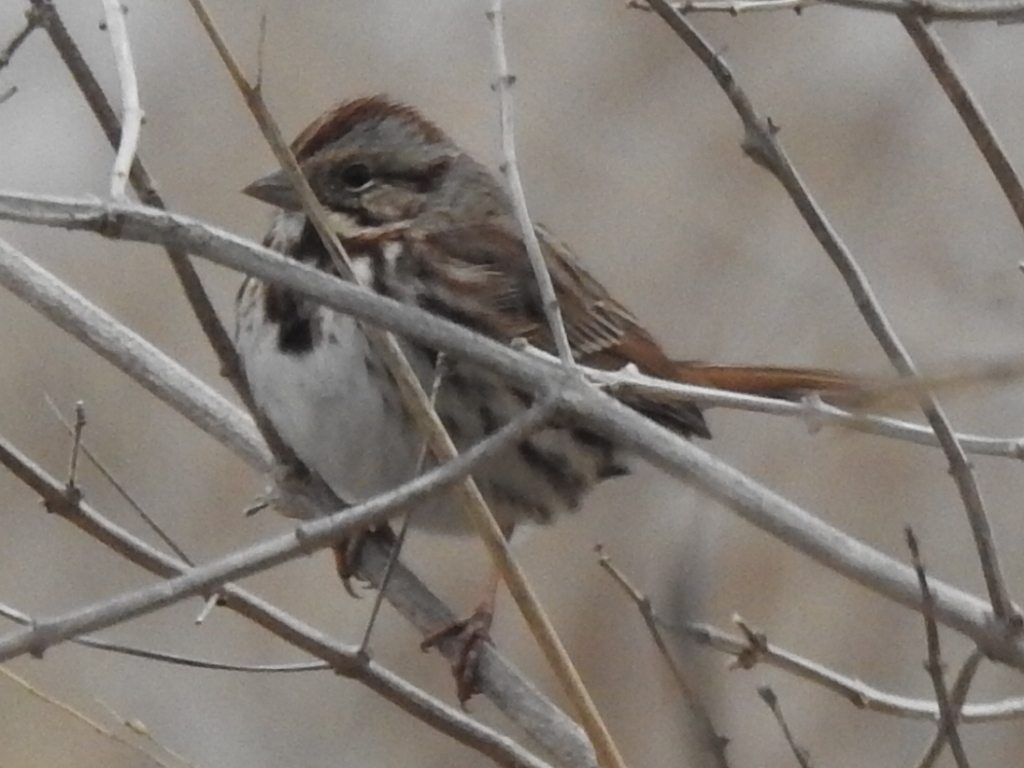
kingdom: Animalia
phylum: Chordata
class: Aves
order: Passeriformes
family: Passerellidae
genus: Melospiza
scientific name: Melospiza melodia
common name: Song sparrow
